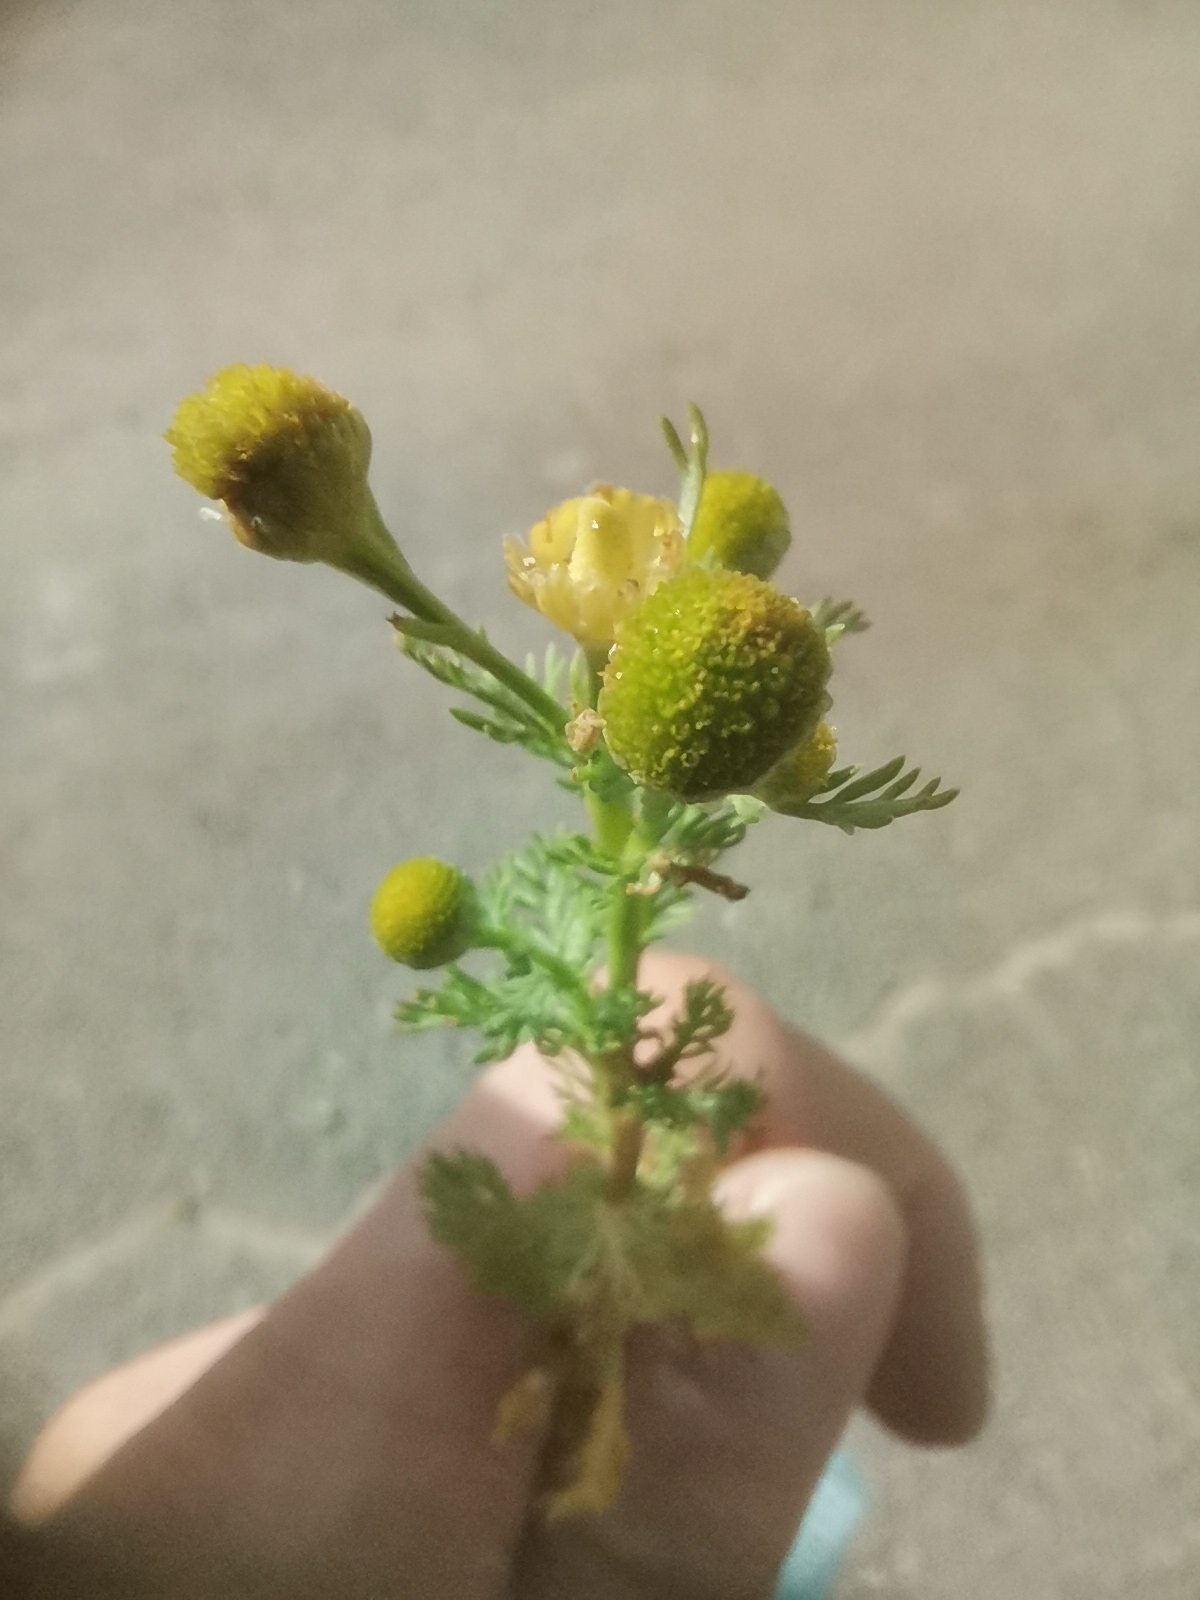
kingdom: Plantae
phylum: Tracheophyta
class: Magnoliopsida
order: Asterales
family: Asteraceae
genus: Matricaria
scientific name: Matricaria discoidea
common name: Disc mayweed
